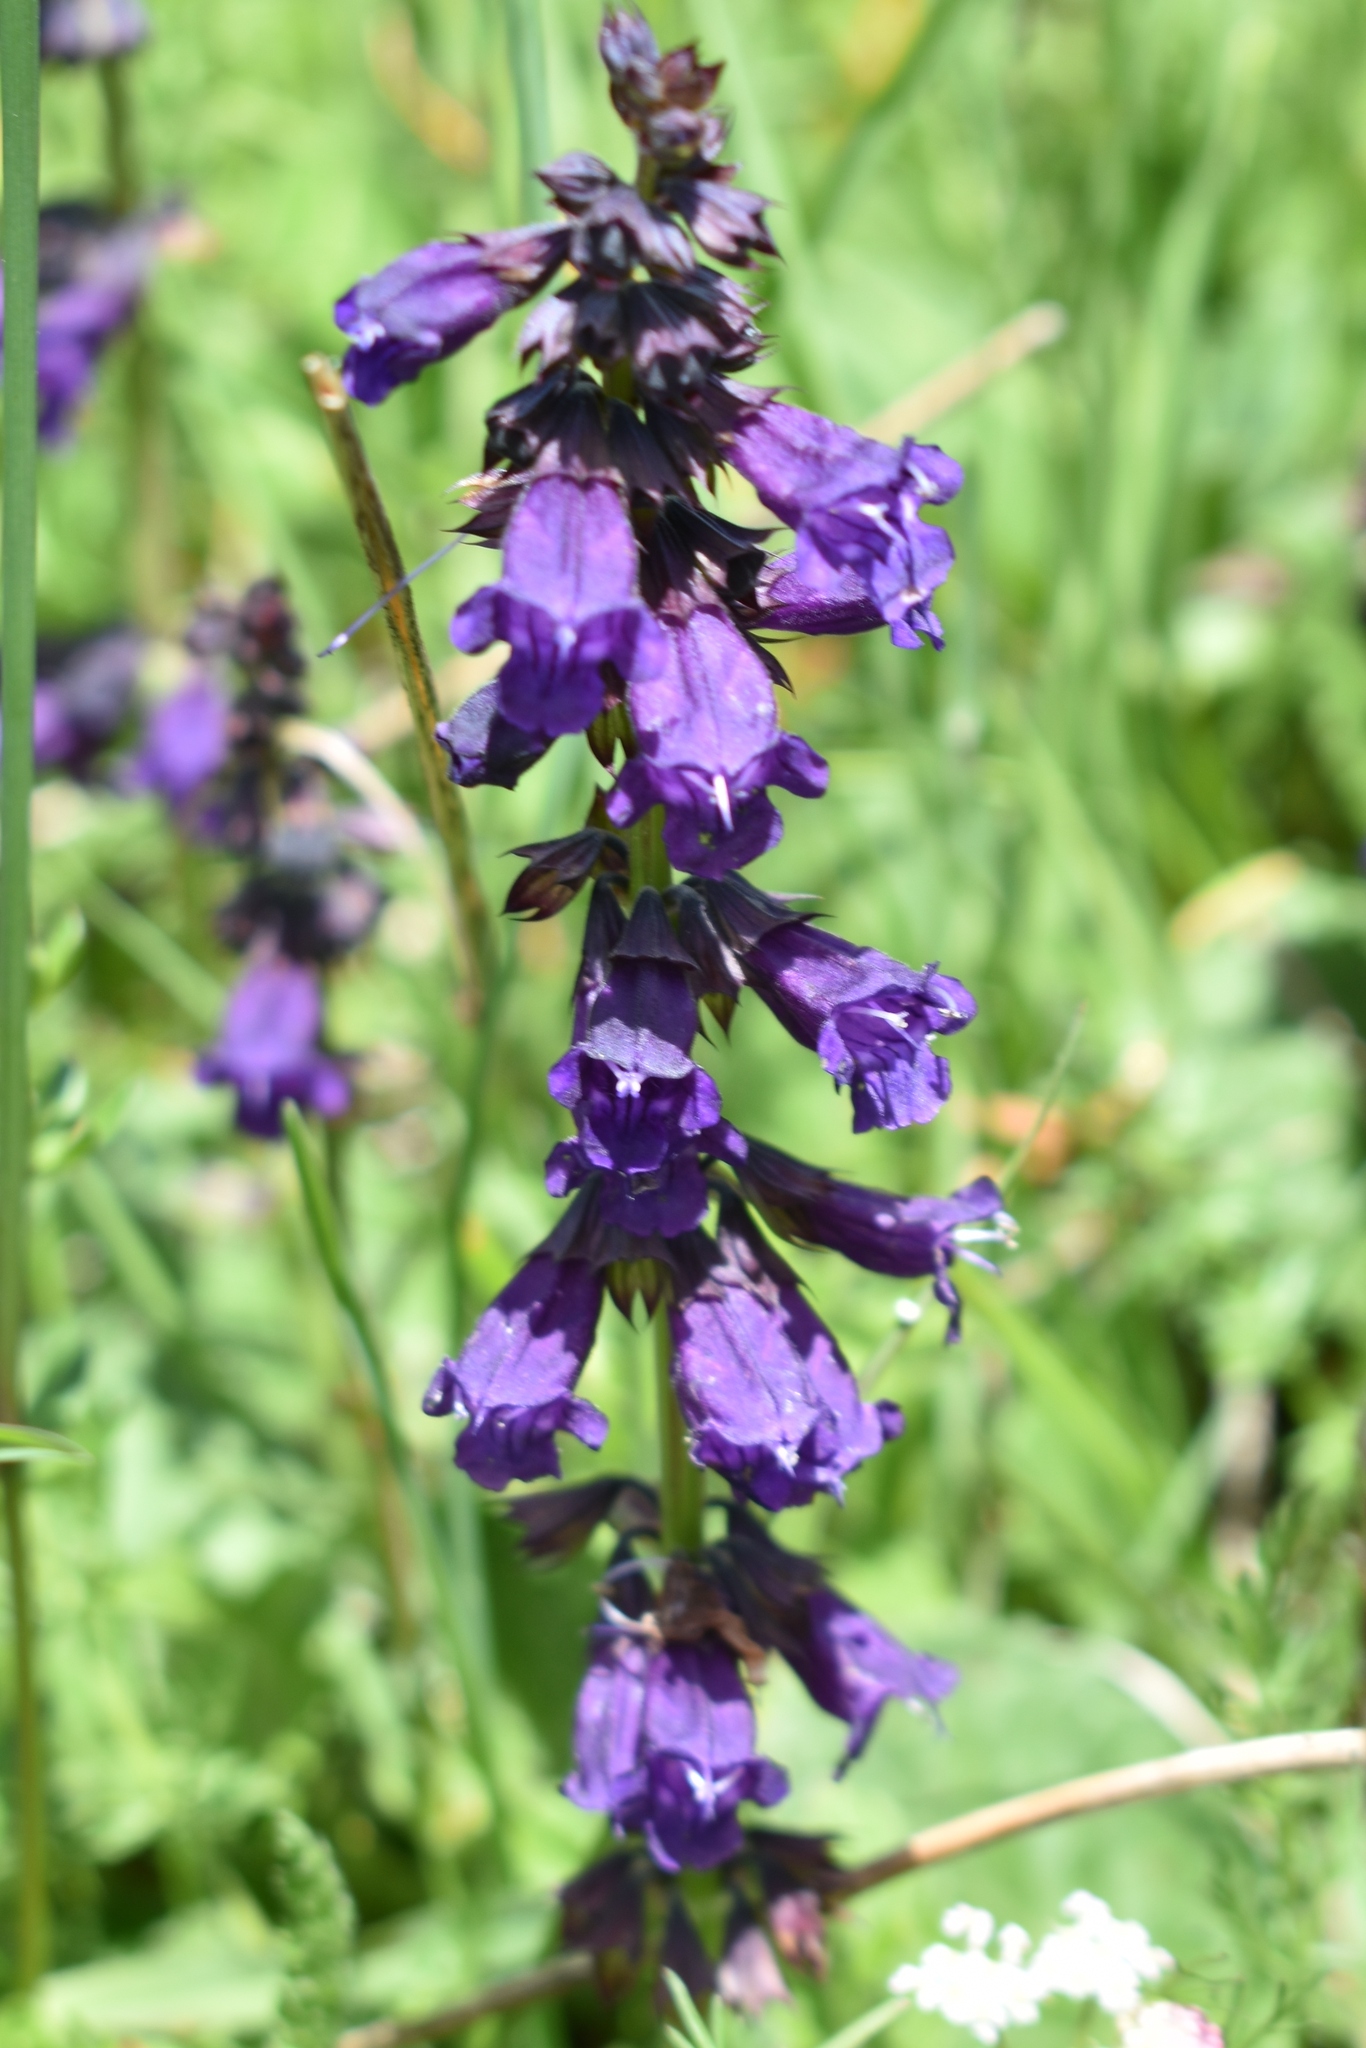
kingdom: Plantae
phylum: Tracheophyta
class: Magnoliopsida
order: Lamiales
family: Lamiaceae
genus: Horminum
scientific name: Horminum pyrenaicum
